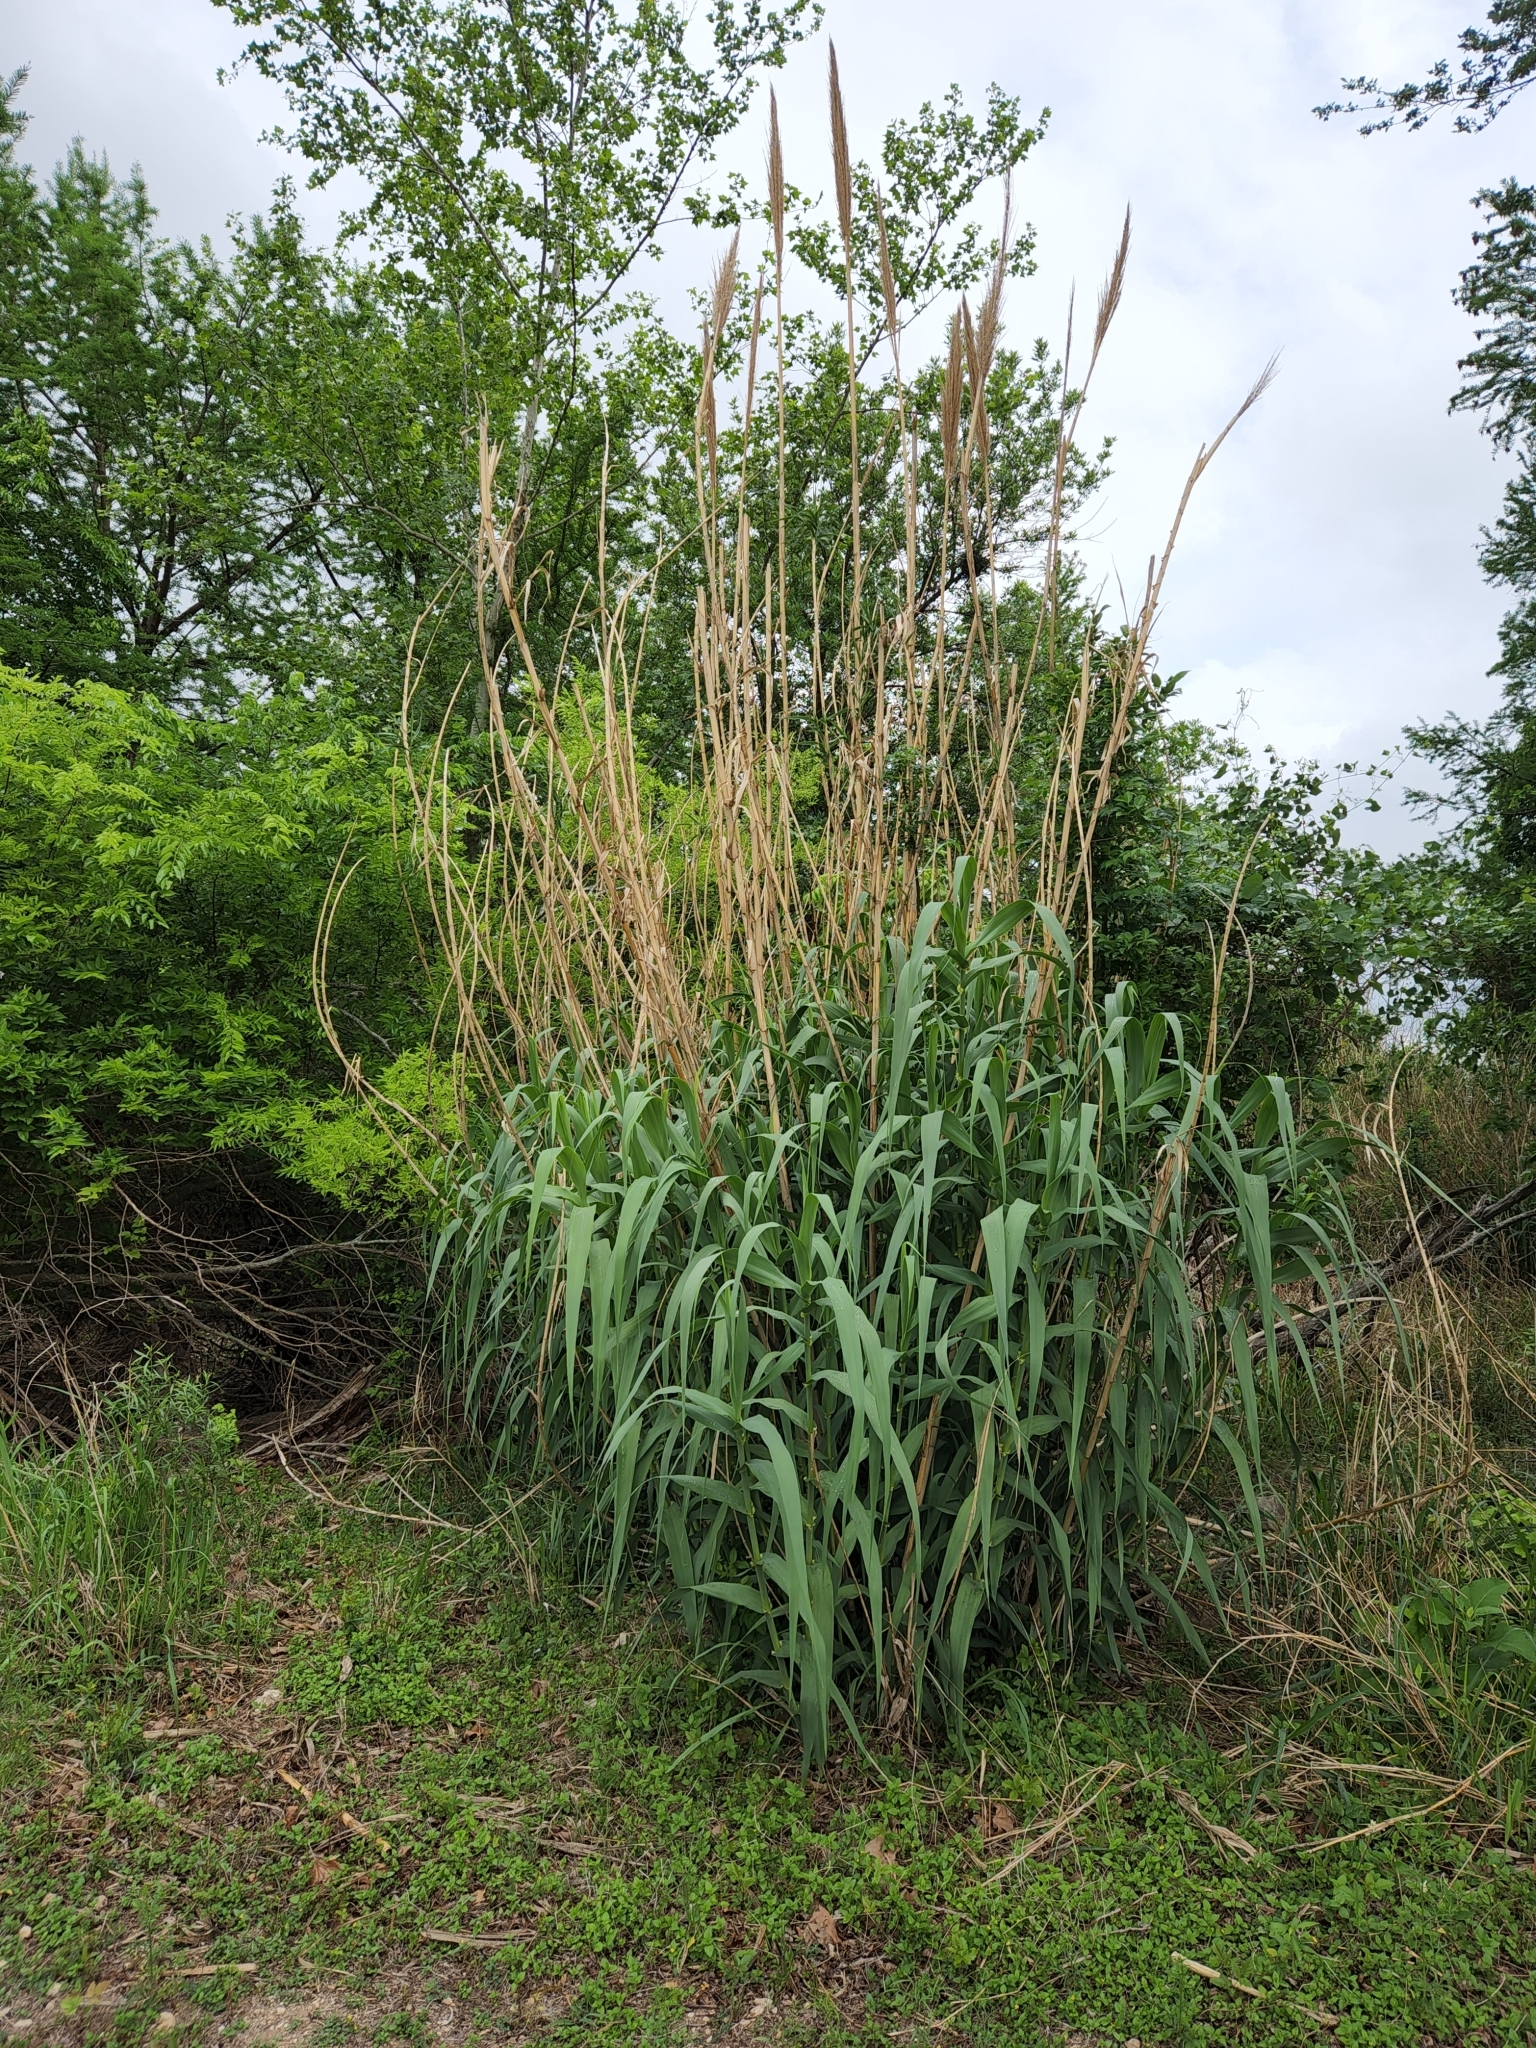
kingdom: Plantae
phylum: Tracheophyta
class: Liliopsida
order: Poales
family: Poaceae
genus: Arundo
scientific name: Arundo donax
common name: Giant reed
